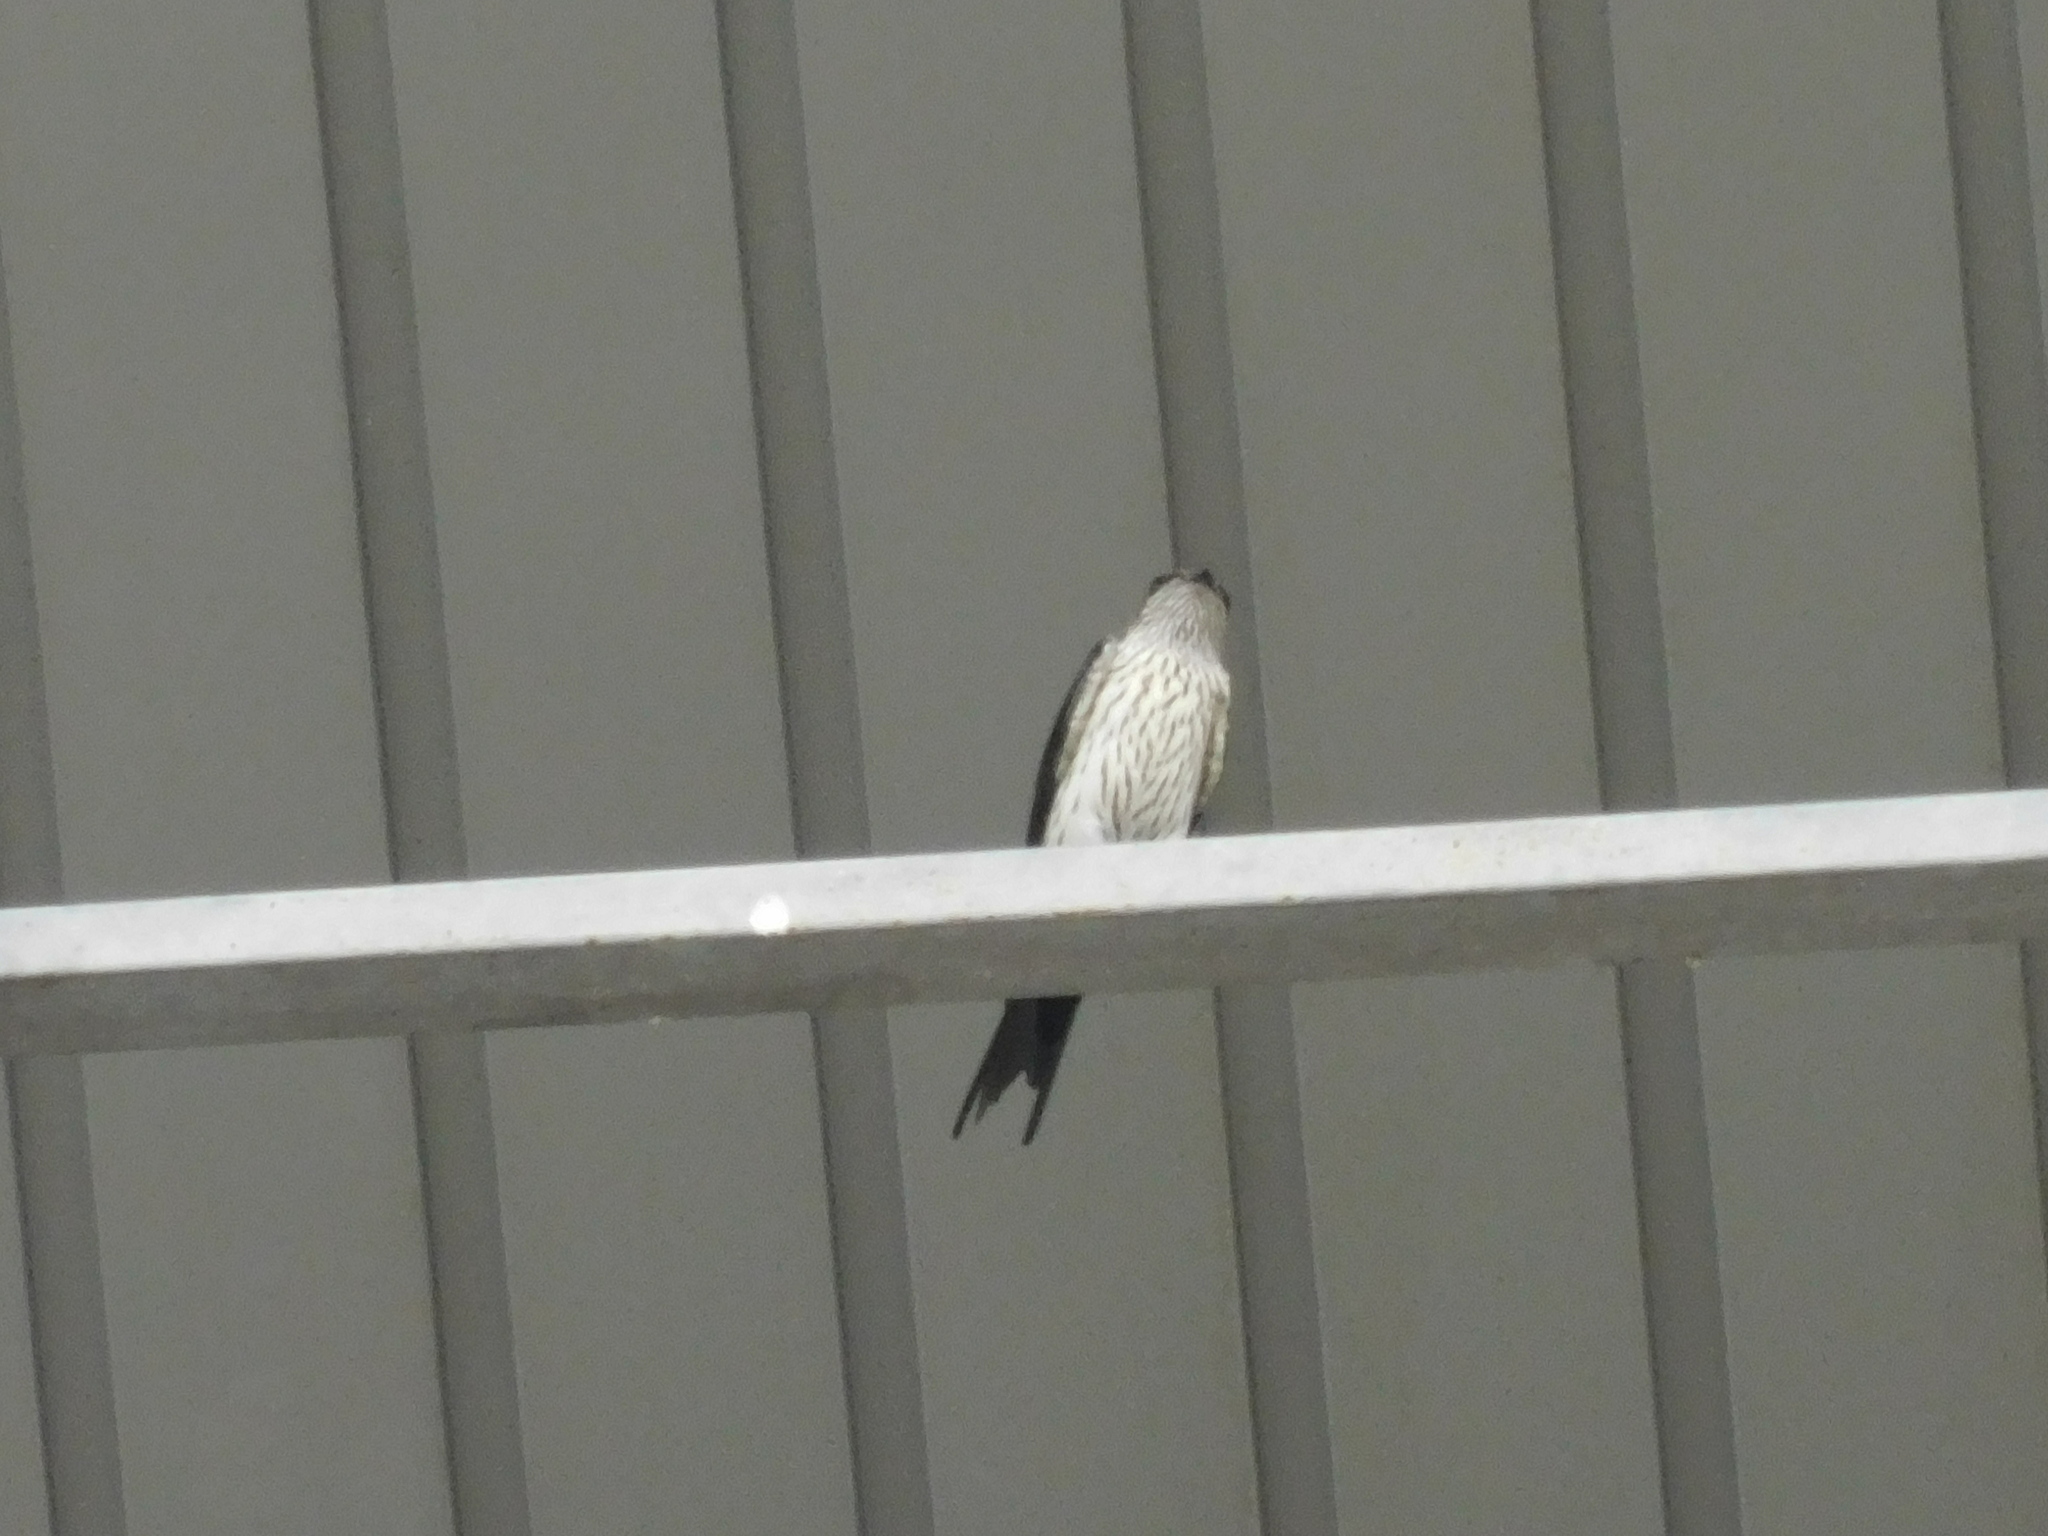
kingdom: Animalia
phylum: Chordata
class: Aves
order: Passeriformes
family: Hirundinidae
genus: Cecropis
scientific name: Cecropis striolata
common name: Striated swallow
